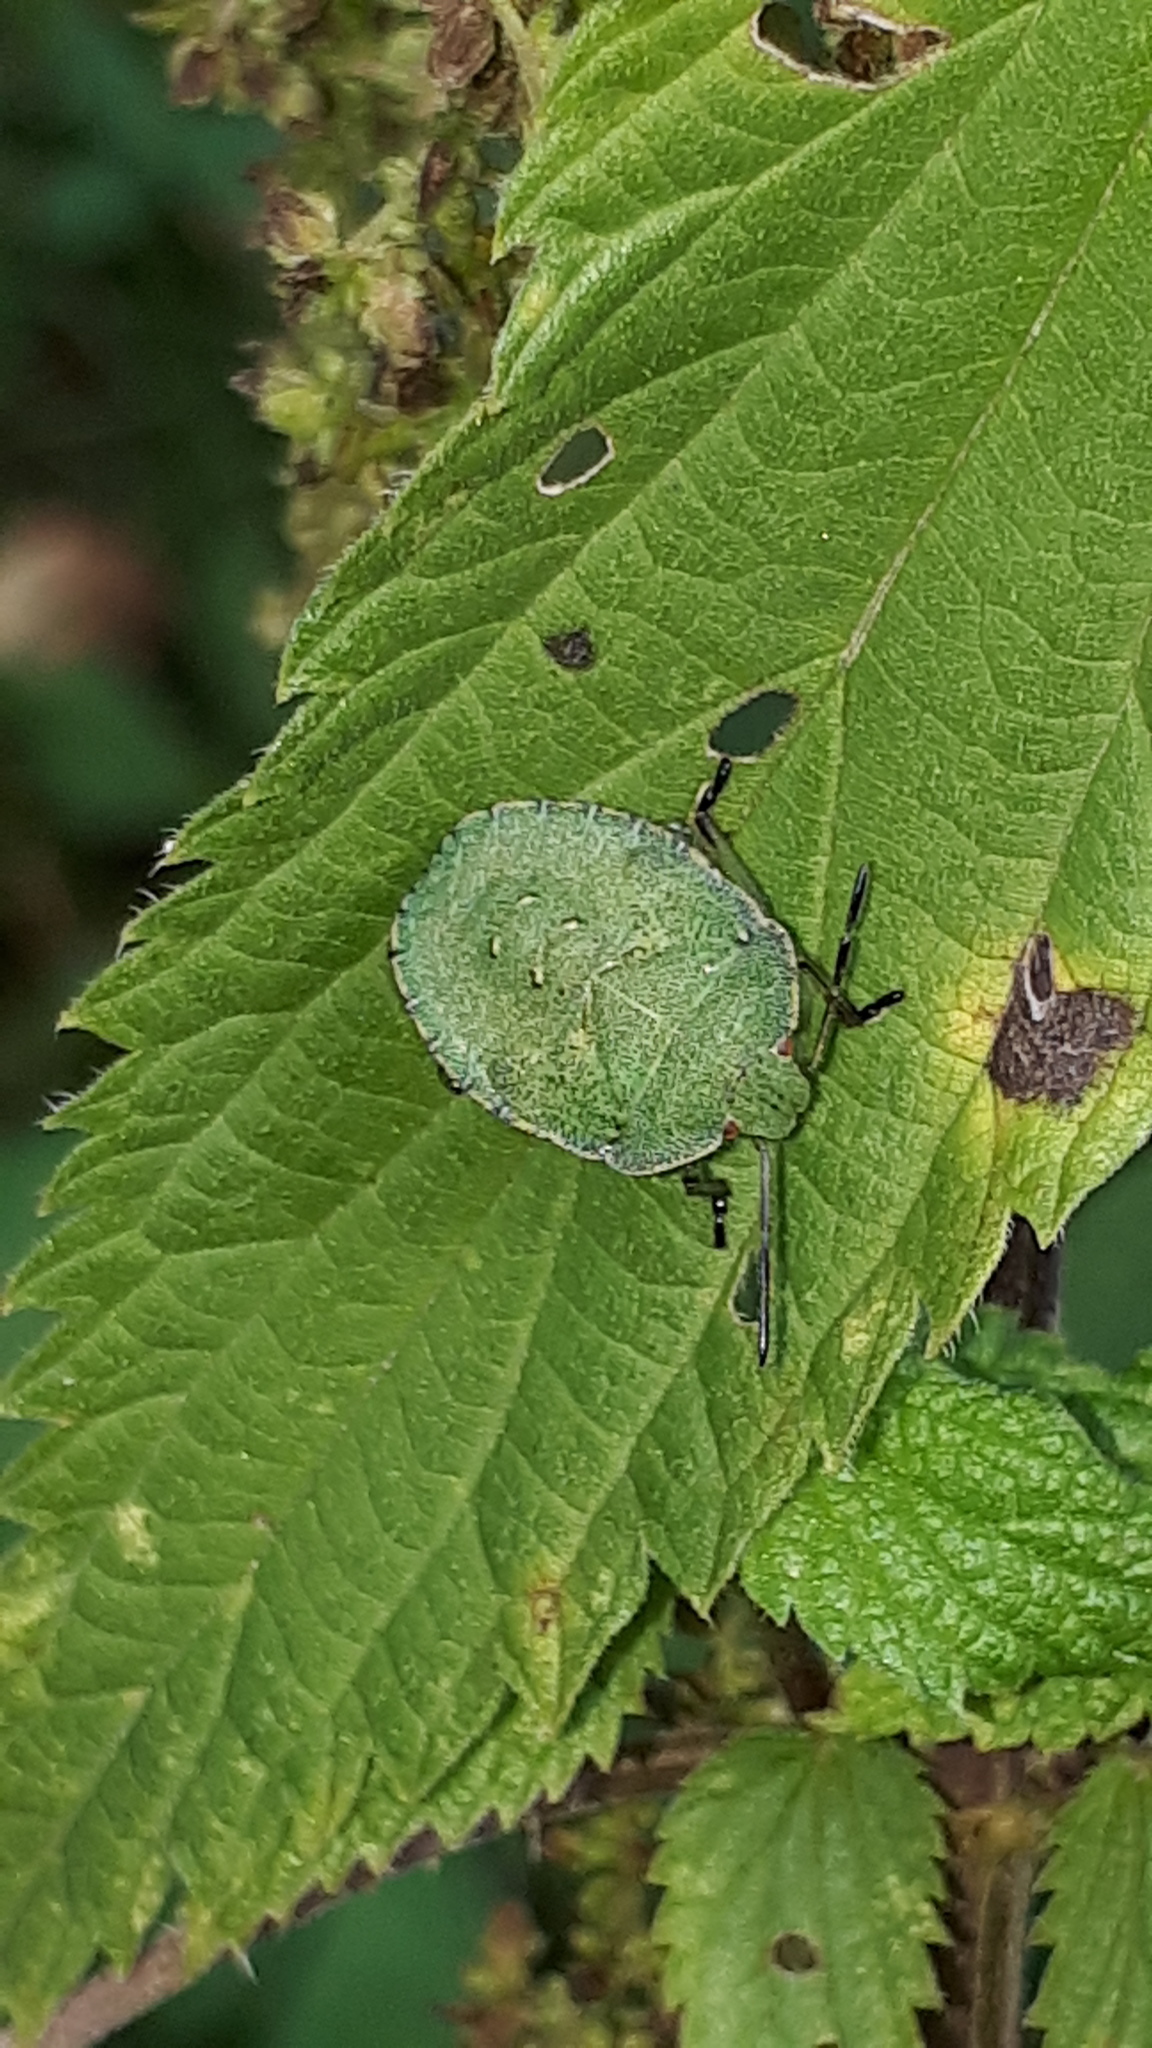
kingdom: Animalia
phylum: Arthropoda
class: Insecta
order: Hemiptera
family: Pentatomidae
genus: Palomena
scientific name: Palomena prasina
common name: Green shieldbug
